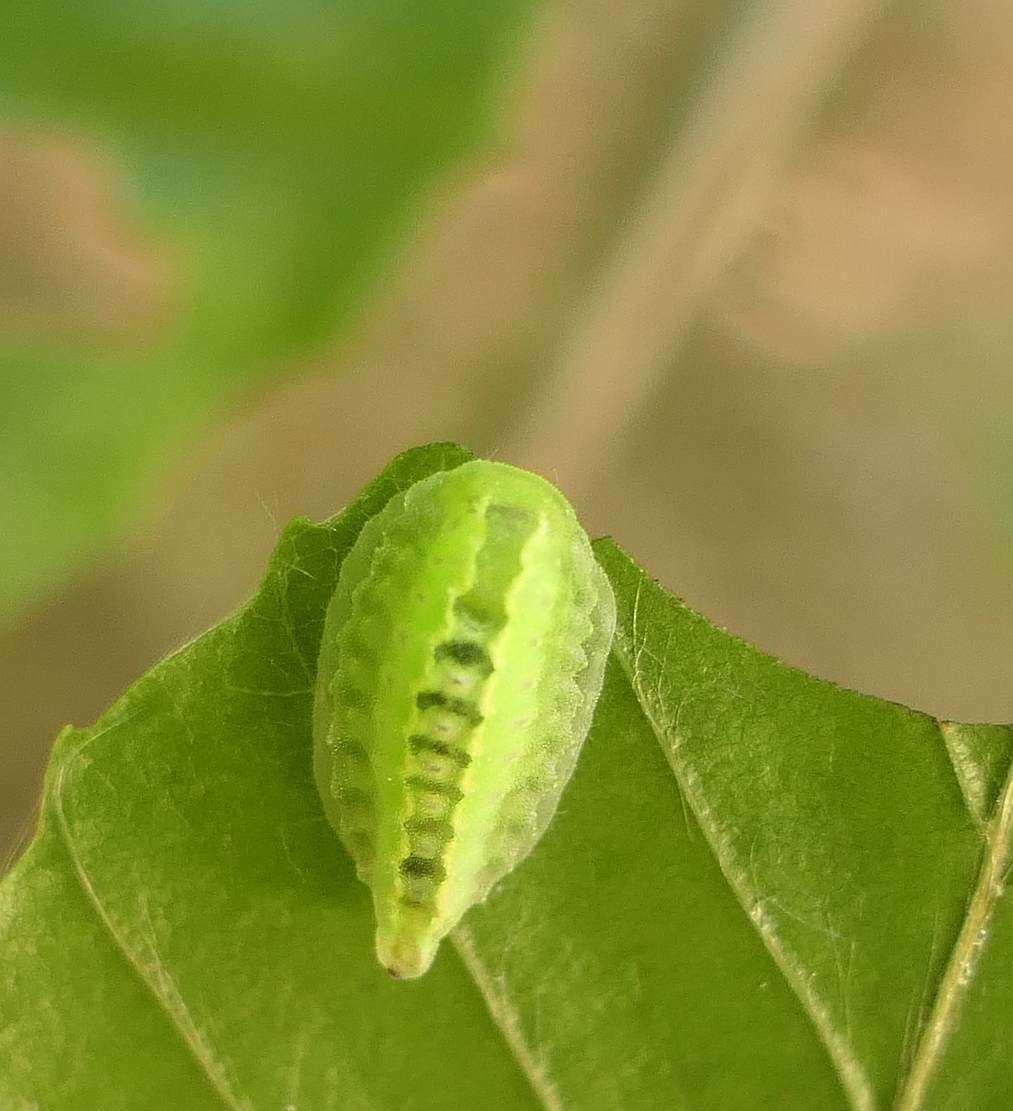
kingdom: Animalia
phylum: Arthropoda
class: Insecta
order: Lepidoptera
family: Limacodidae
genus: Packardia
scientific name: Packardia elegans
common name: Elegant tailed slug moth
